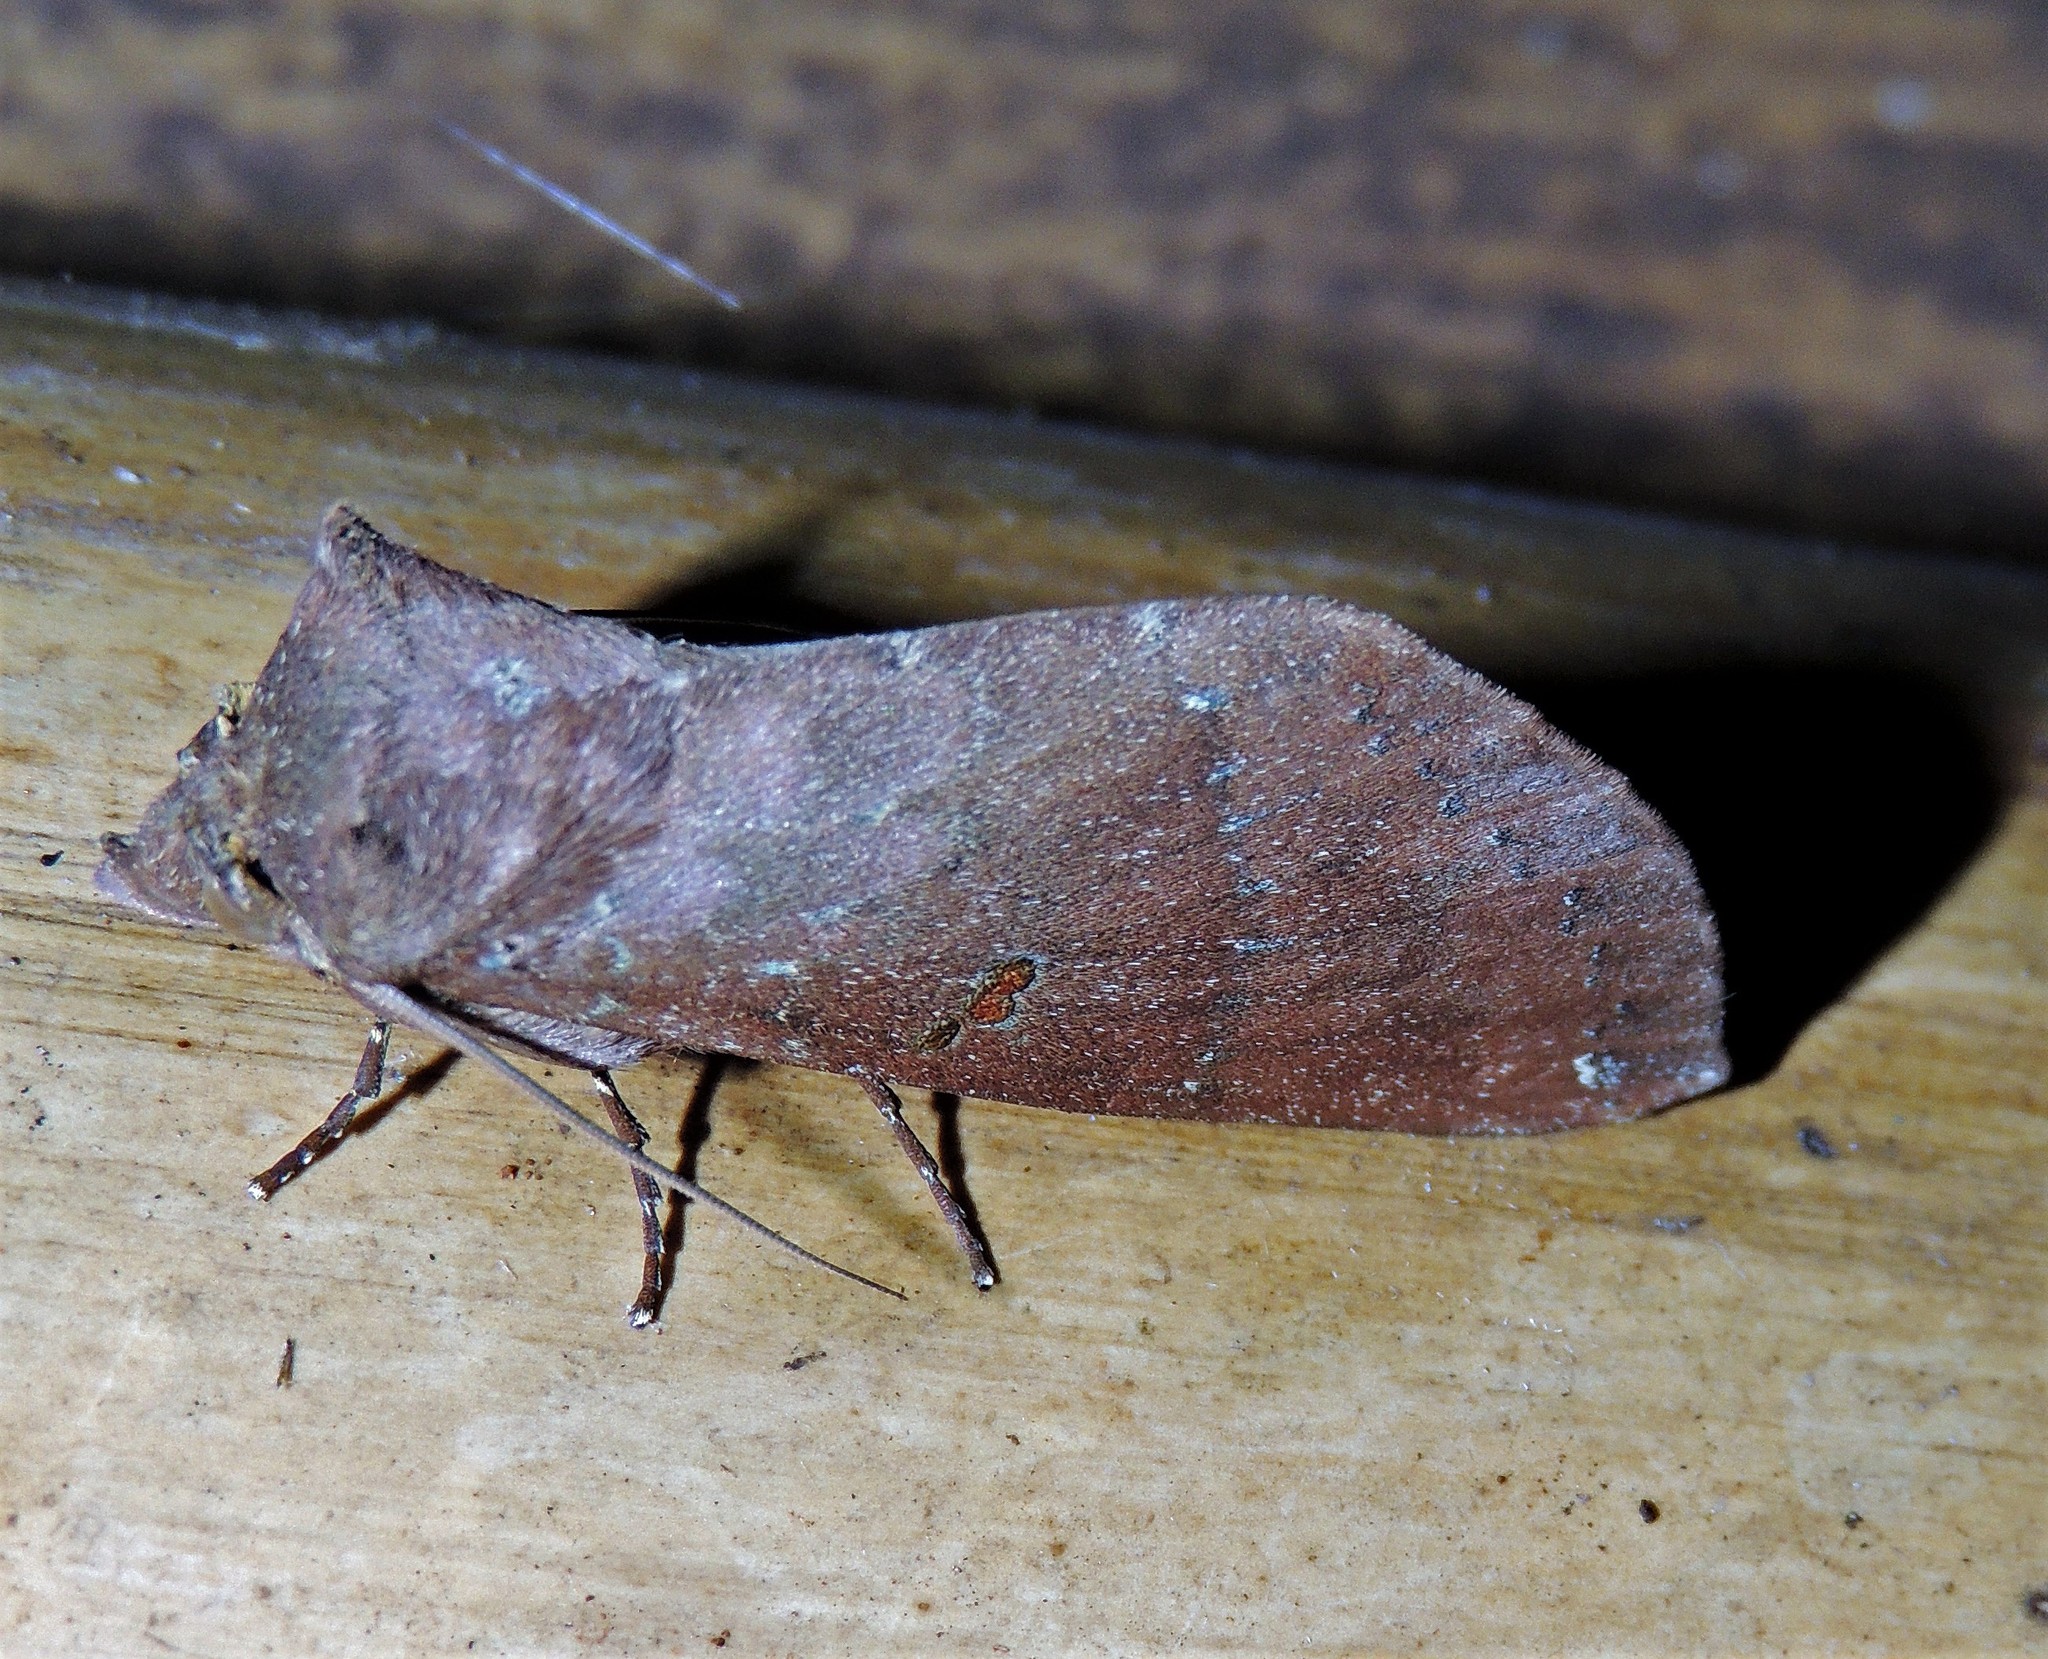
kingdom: Animalia
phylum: Arthropoda
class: Insecta
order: Lepidoptera
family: Notodontidae
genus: Hapigia
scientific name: Hapigia simplex
